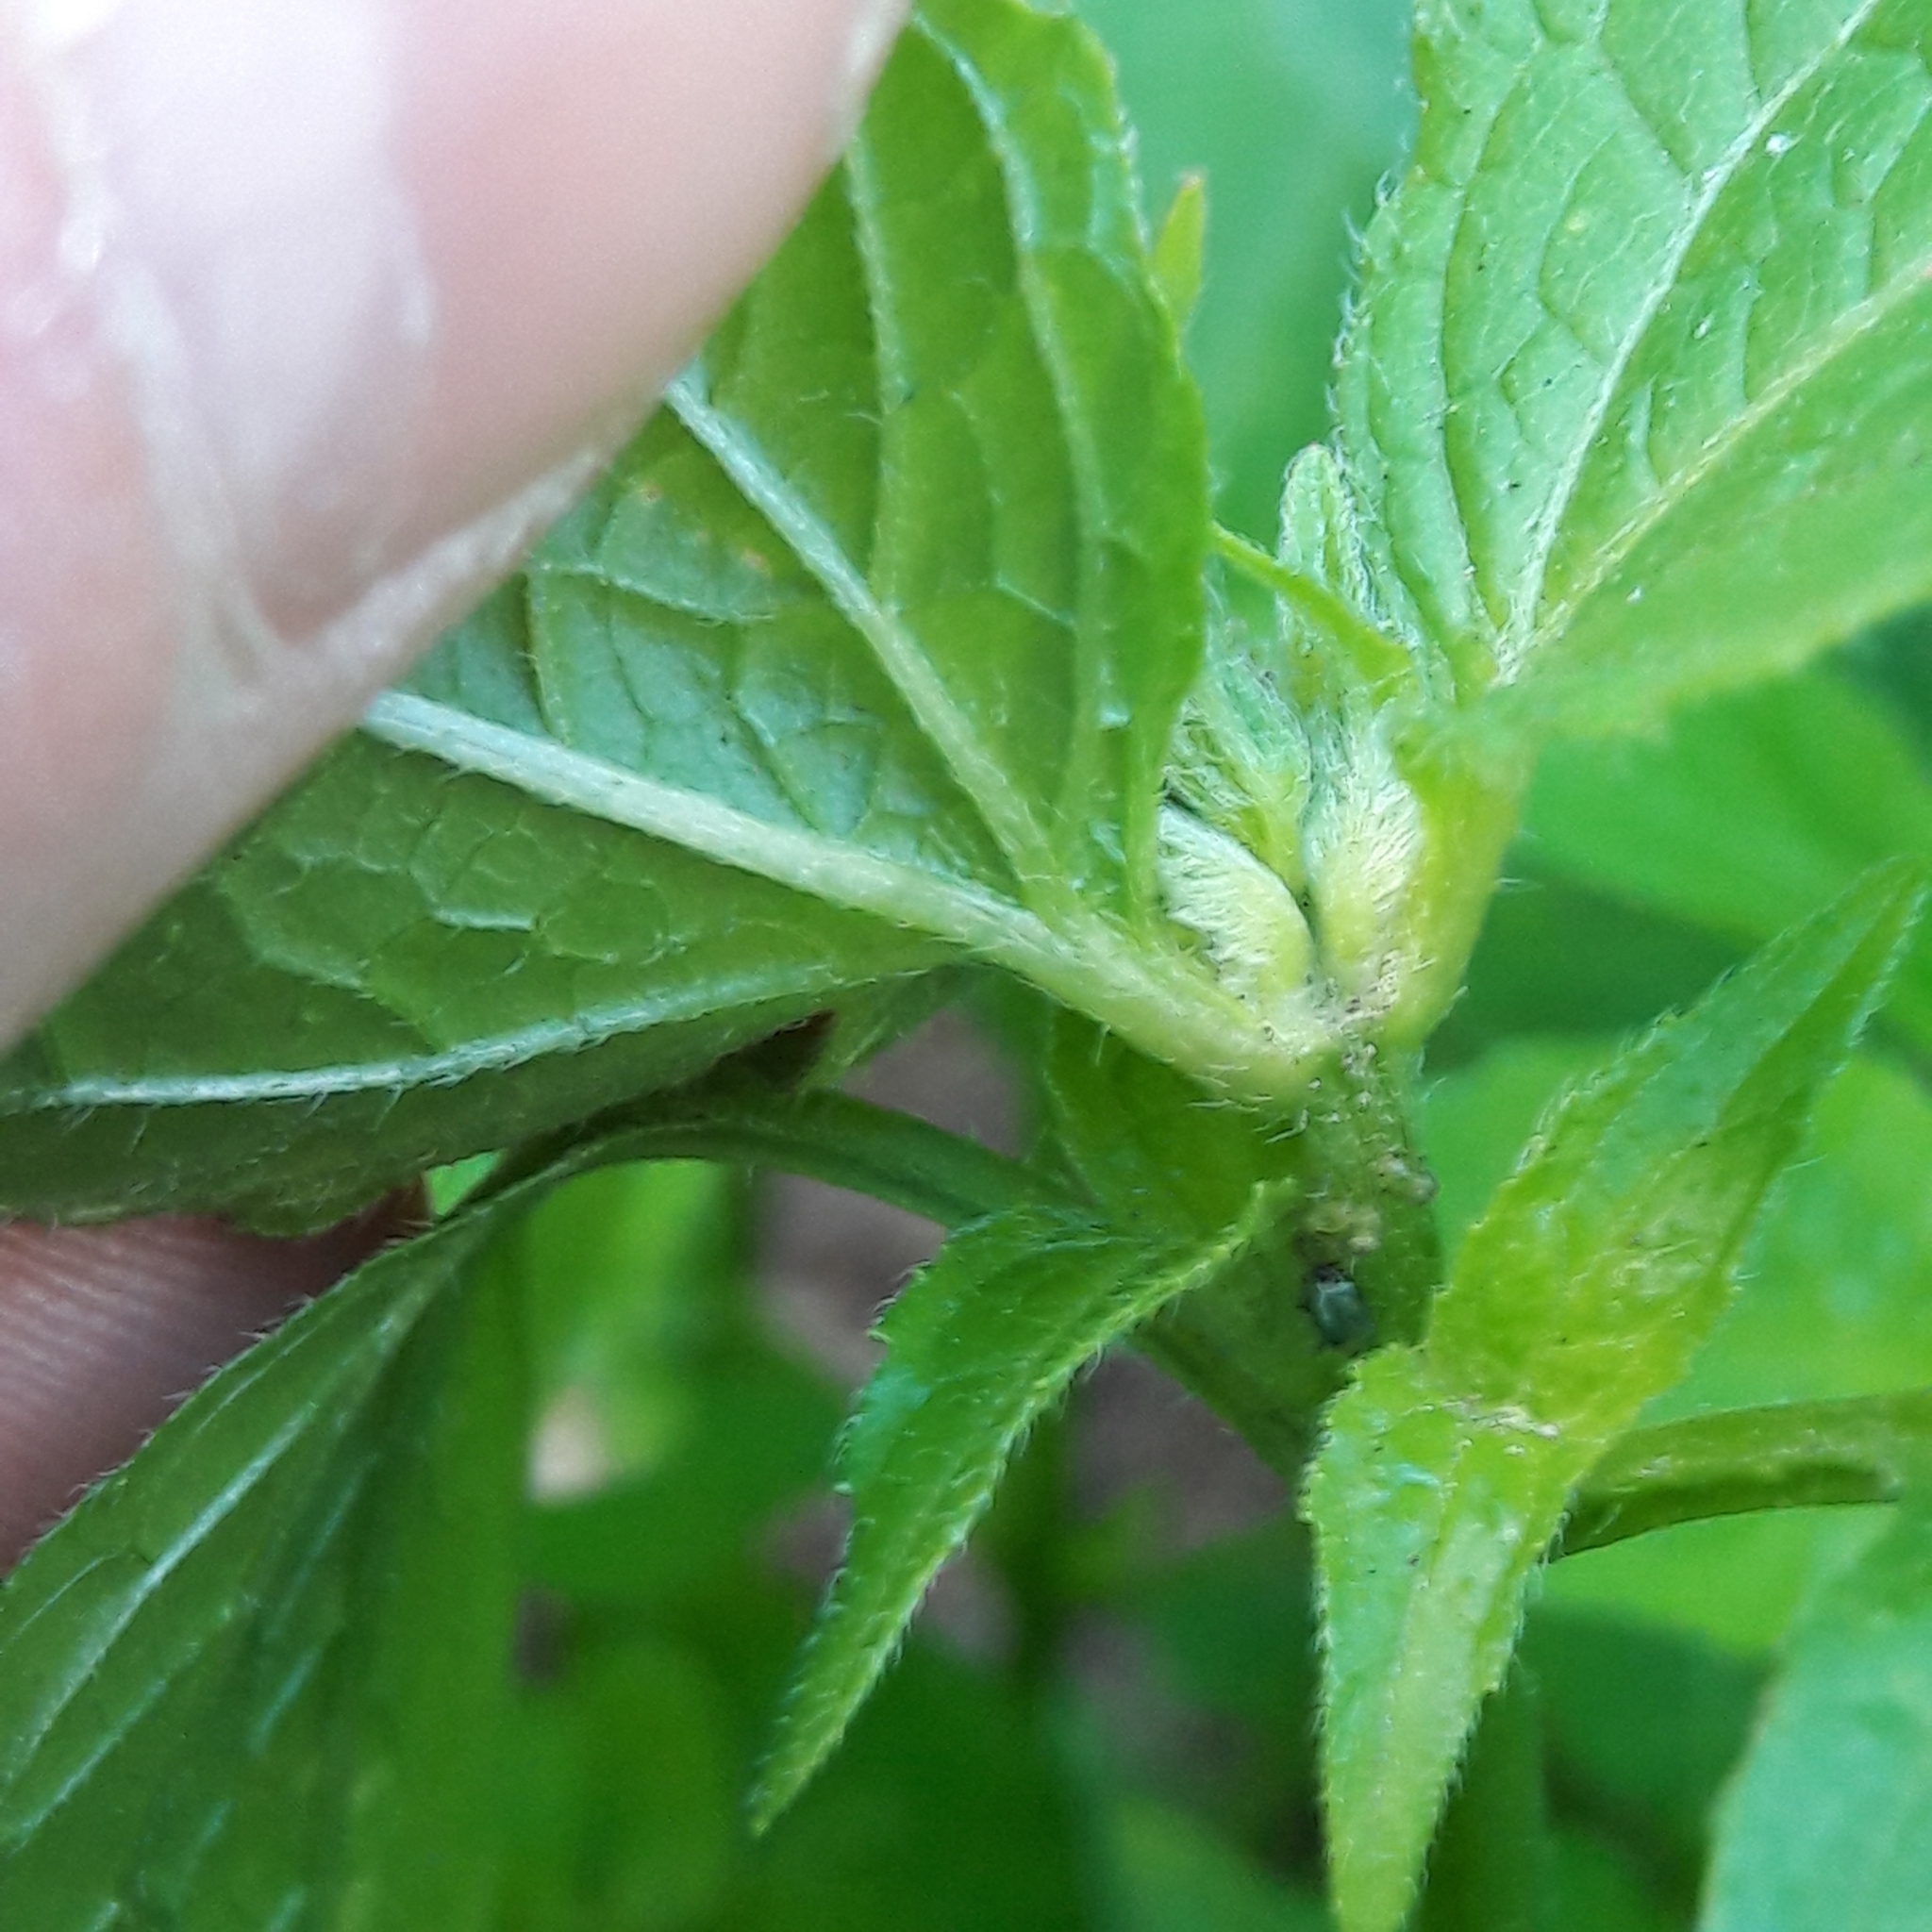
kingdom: Plantae
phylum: Tracheophyta
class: Magnoliopsida
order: Asterales
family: Asteraceae
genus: Galinsoga
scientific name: Galinsoga quadriradiata
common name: Shaggy soldier
